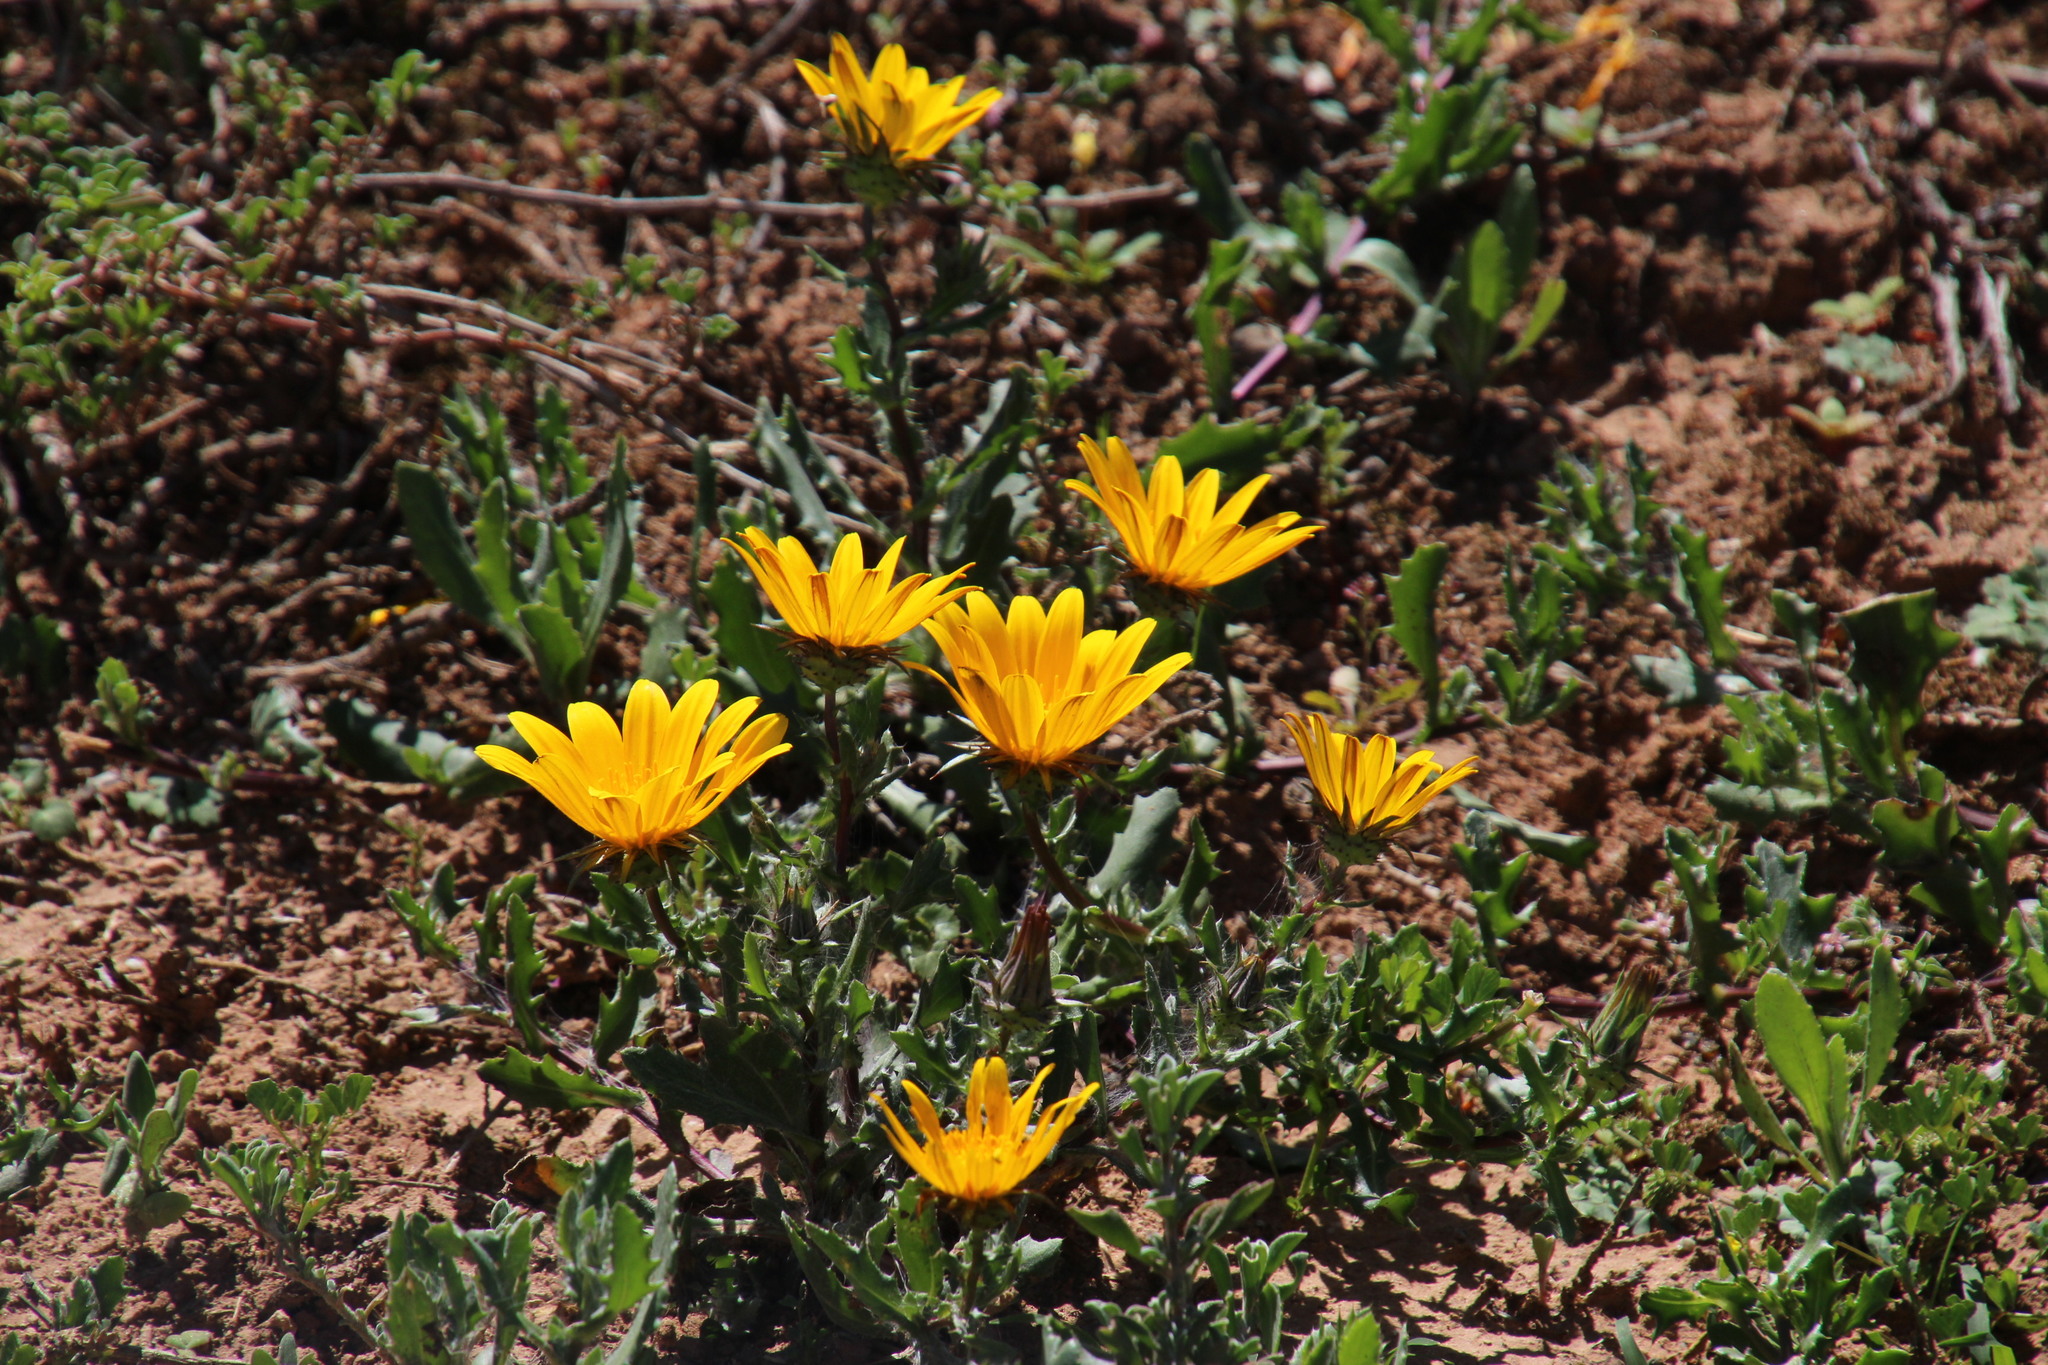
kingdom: Plantae
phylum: Tracheophyta
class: Magnoliopsida
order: Asterales
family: Asteraceae
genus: Cuspidia
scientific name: Cuspidia cernua
